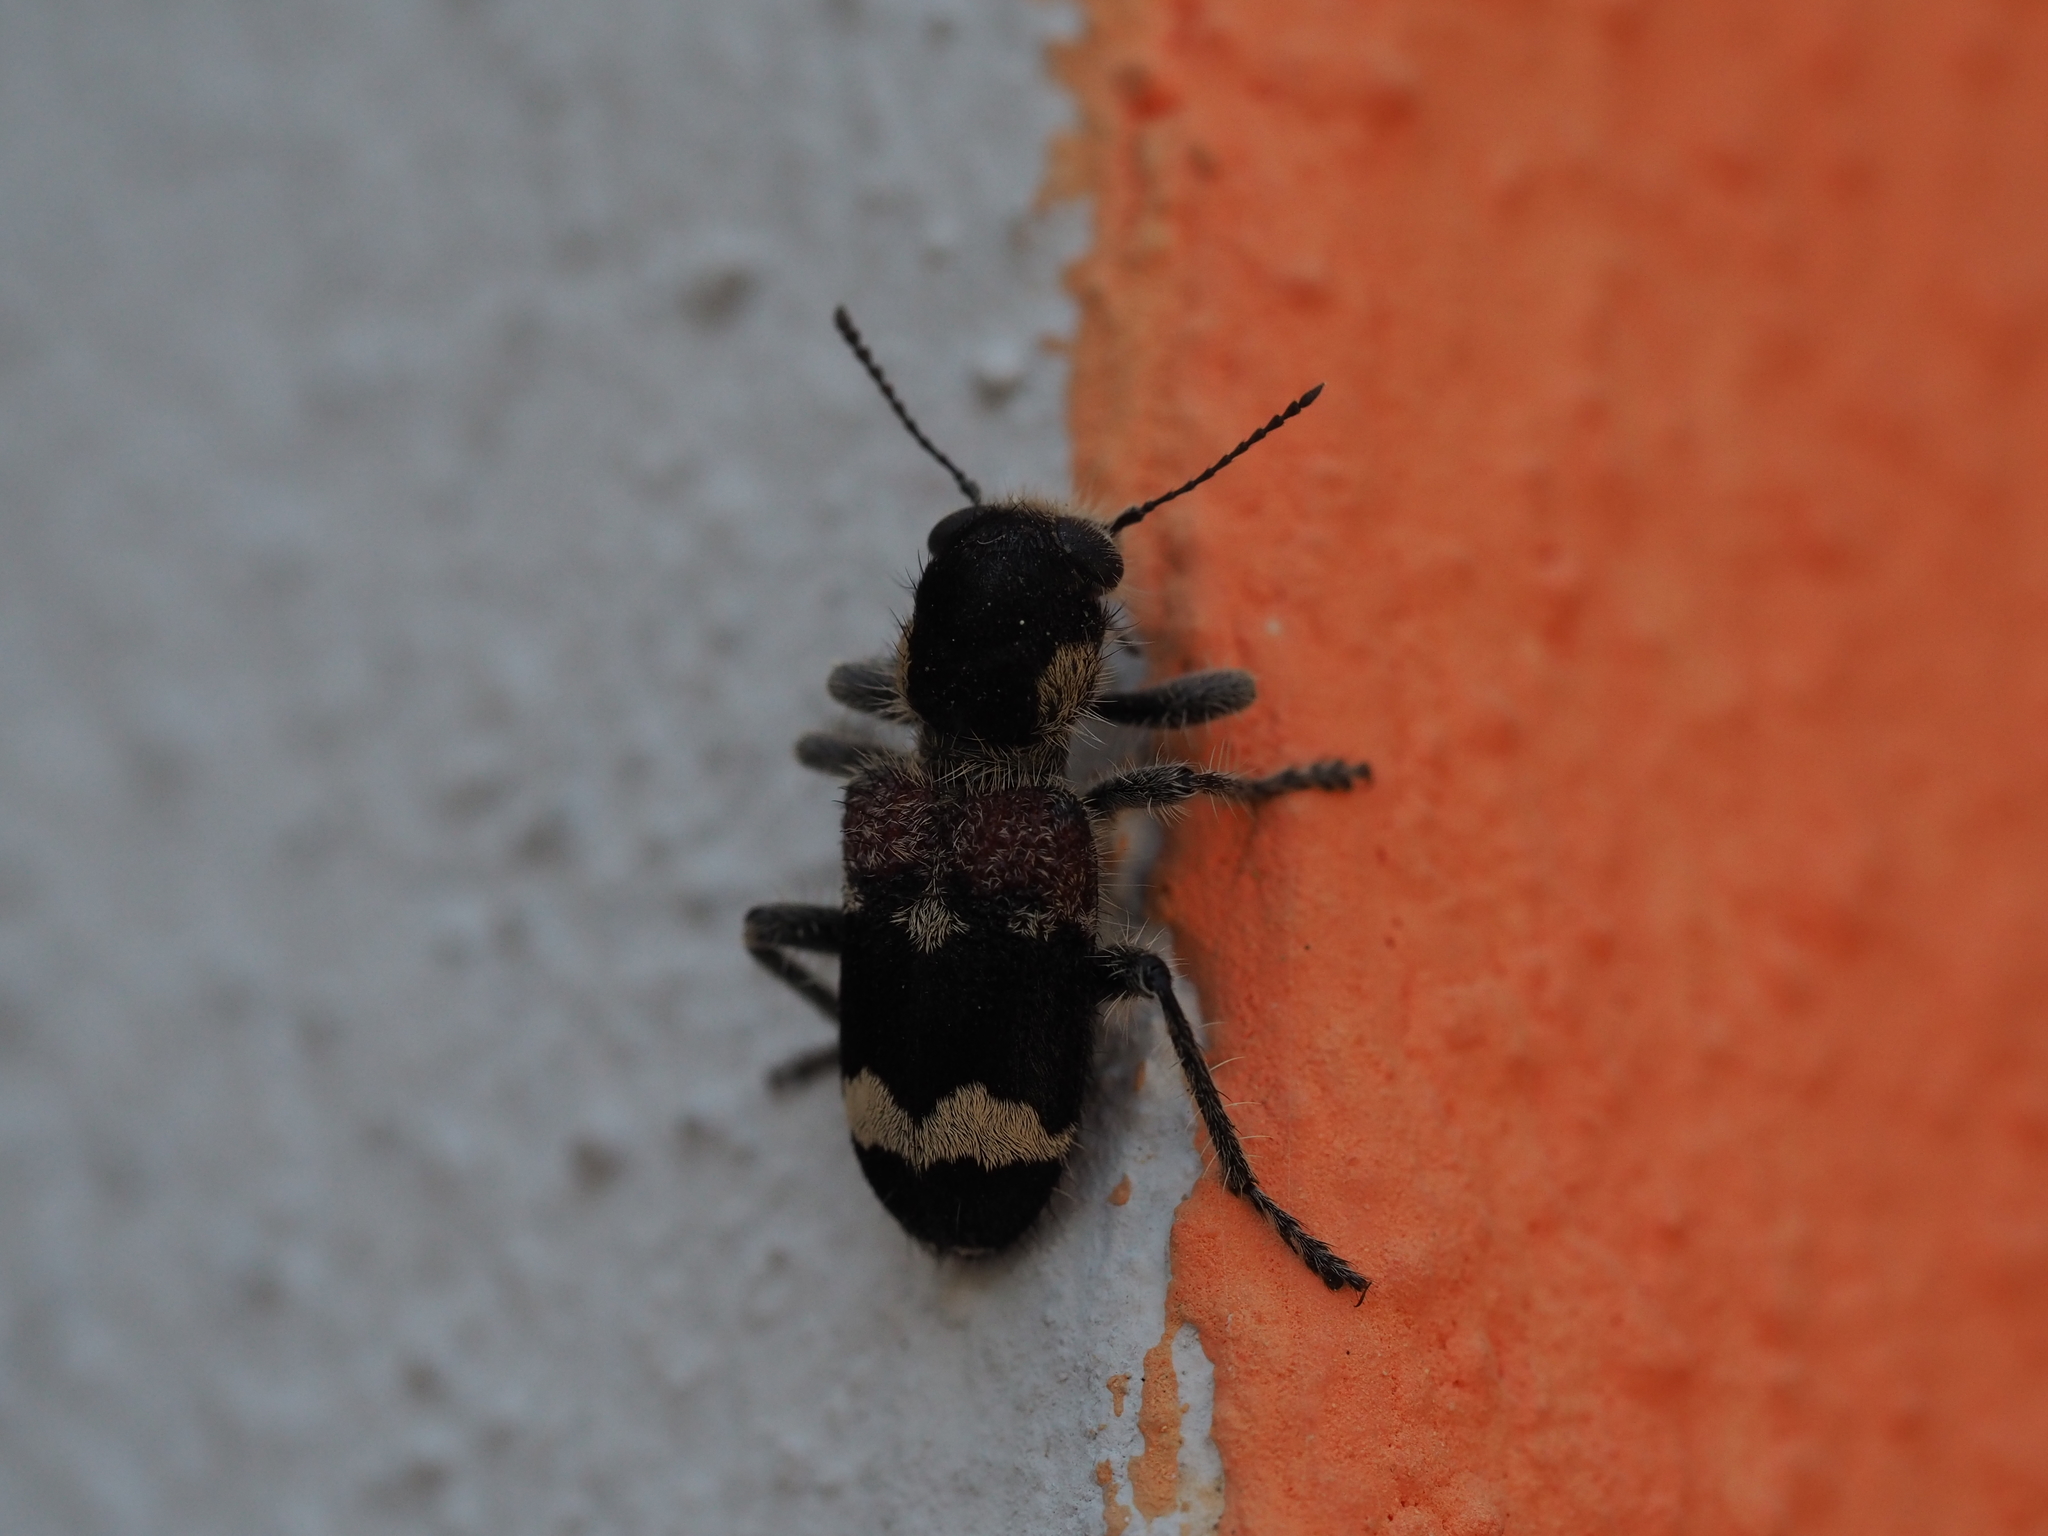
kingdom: Animalia
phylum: Arthropoda
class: Insecta
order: Coleoptera
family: Cleridae
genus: Clerus
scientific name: Clerus mutillarius
